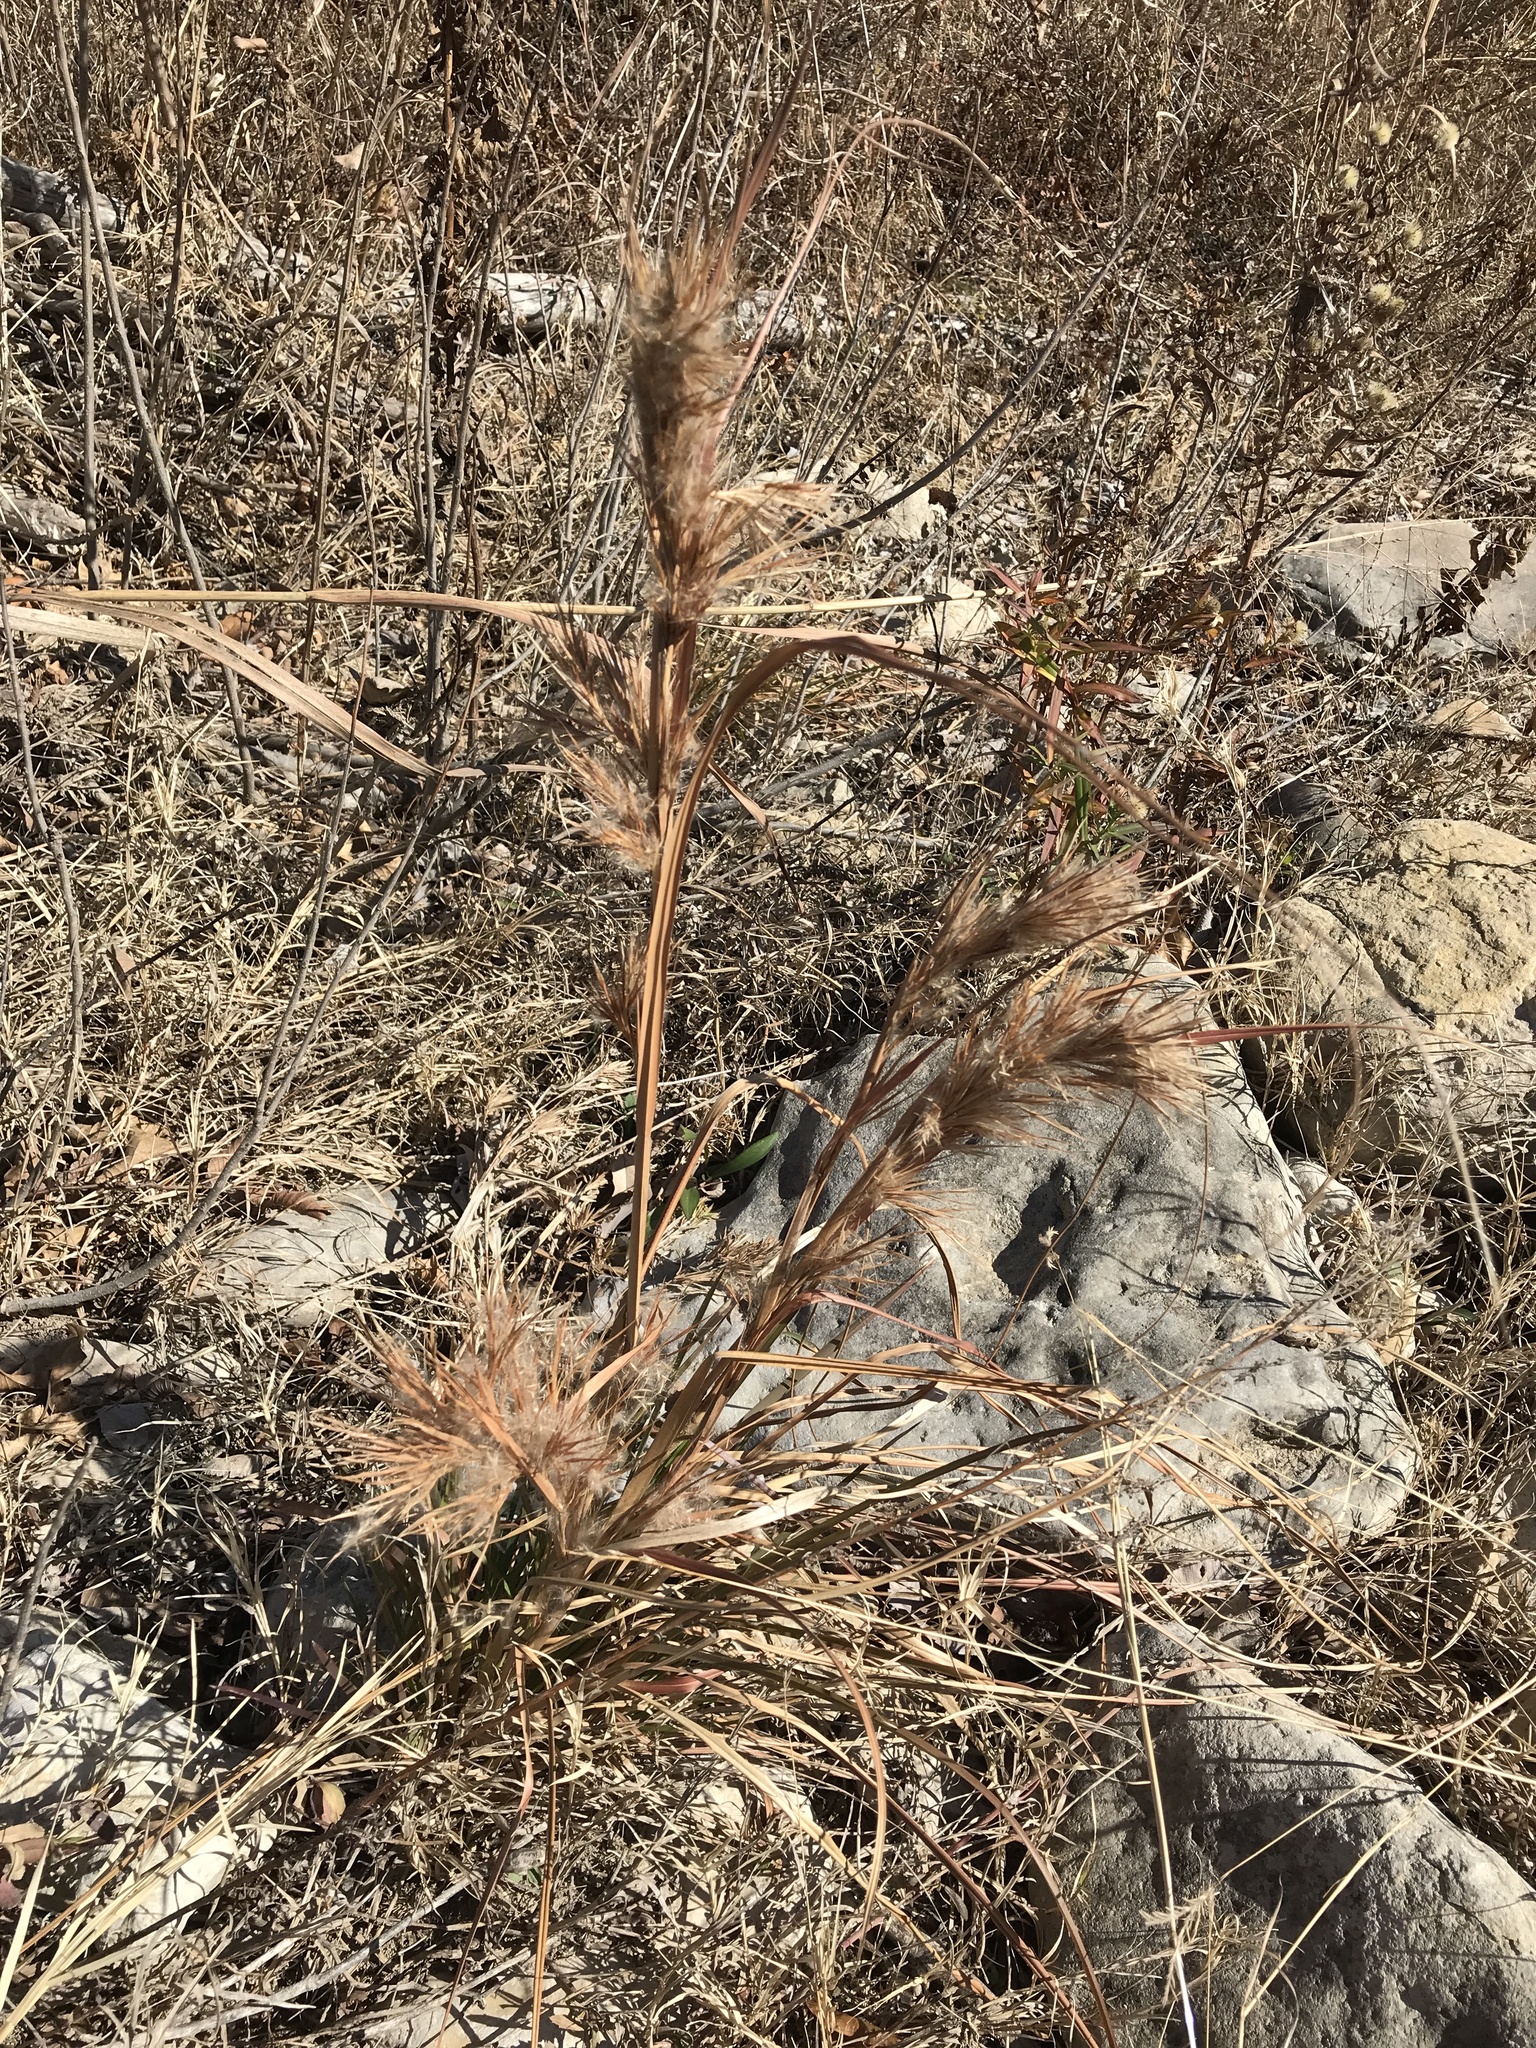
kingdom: Plantae
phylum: Tracheophyta
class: Liliopsida
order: Poales
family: Poaceae
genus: Andropogon
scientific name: Andropogon tenuispatheus
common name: Bushy bluestem
